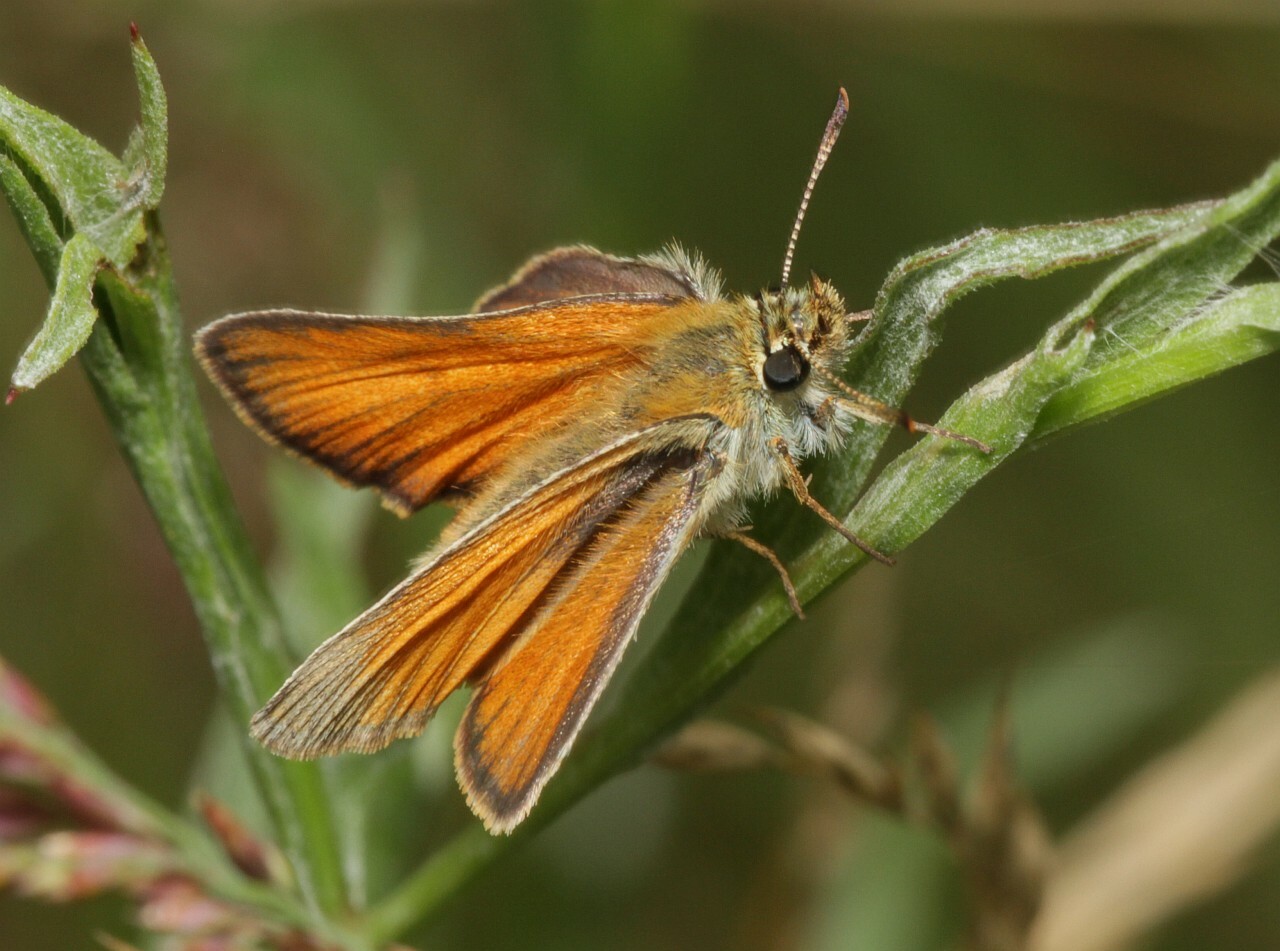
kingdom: Animalia
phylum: Arthropoda
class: Insecta
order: Lepidoptera
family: Hesperiidae
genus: Thymelicus
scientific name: Thymelicus sylvestris
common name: Small skipper
